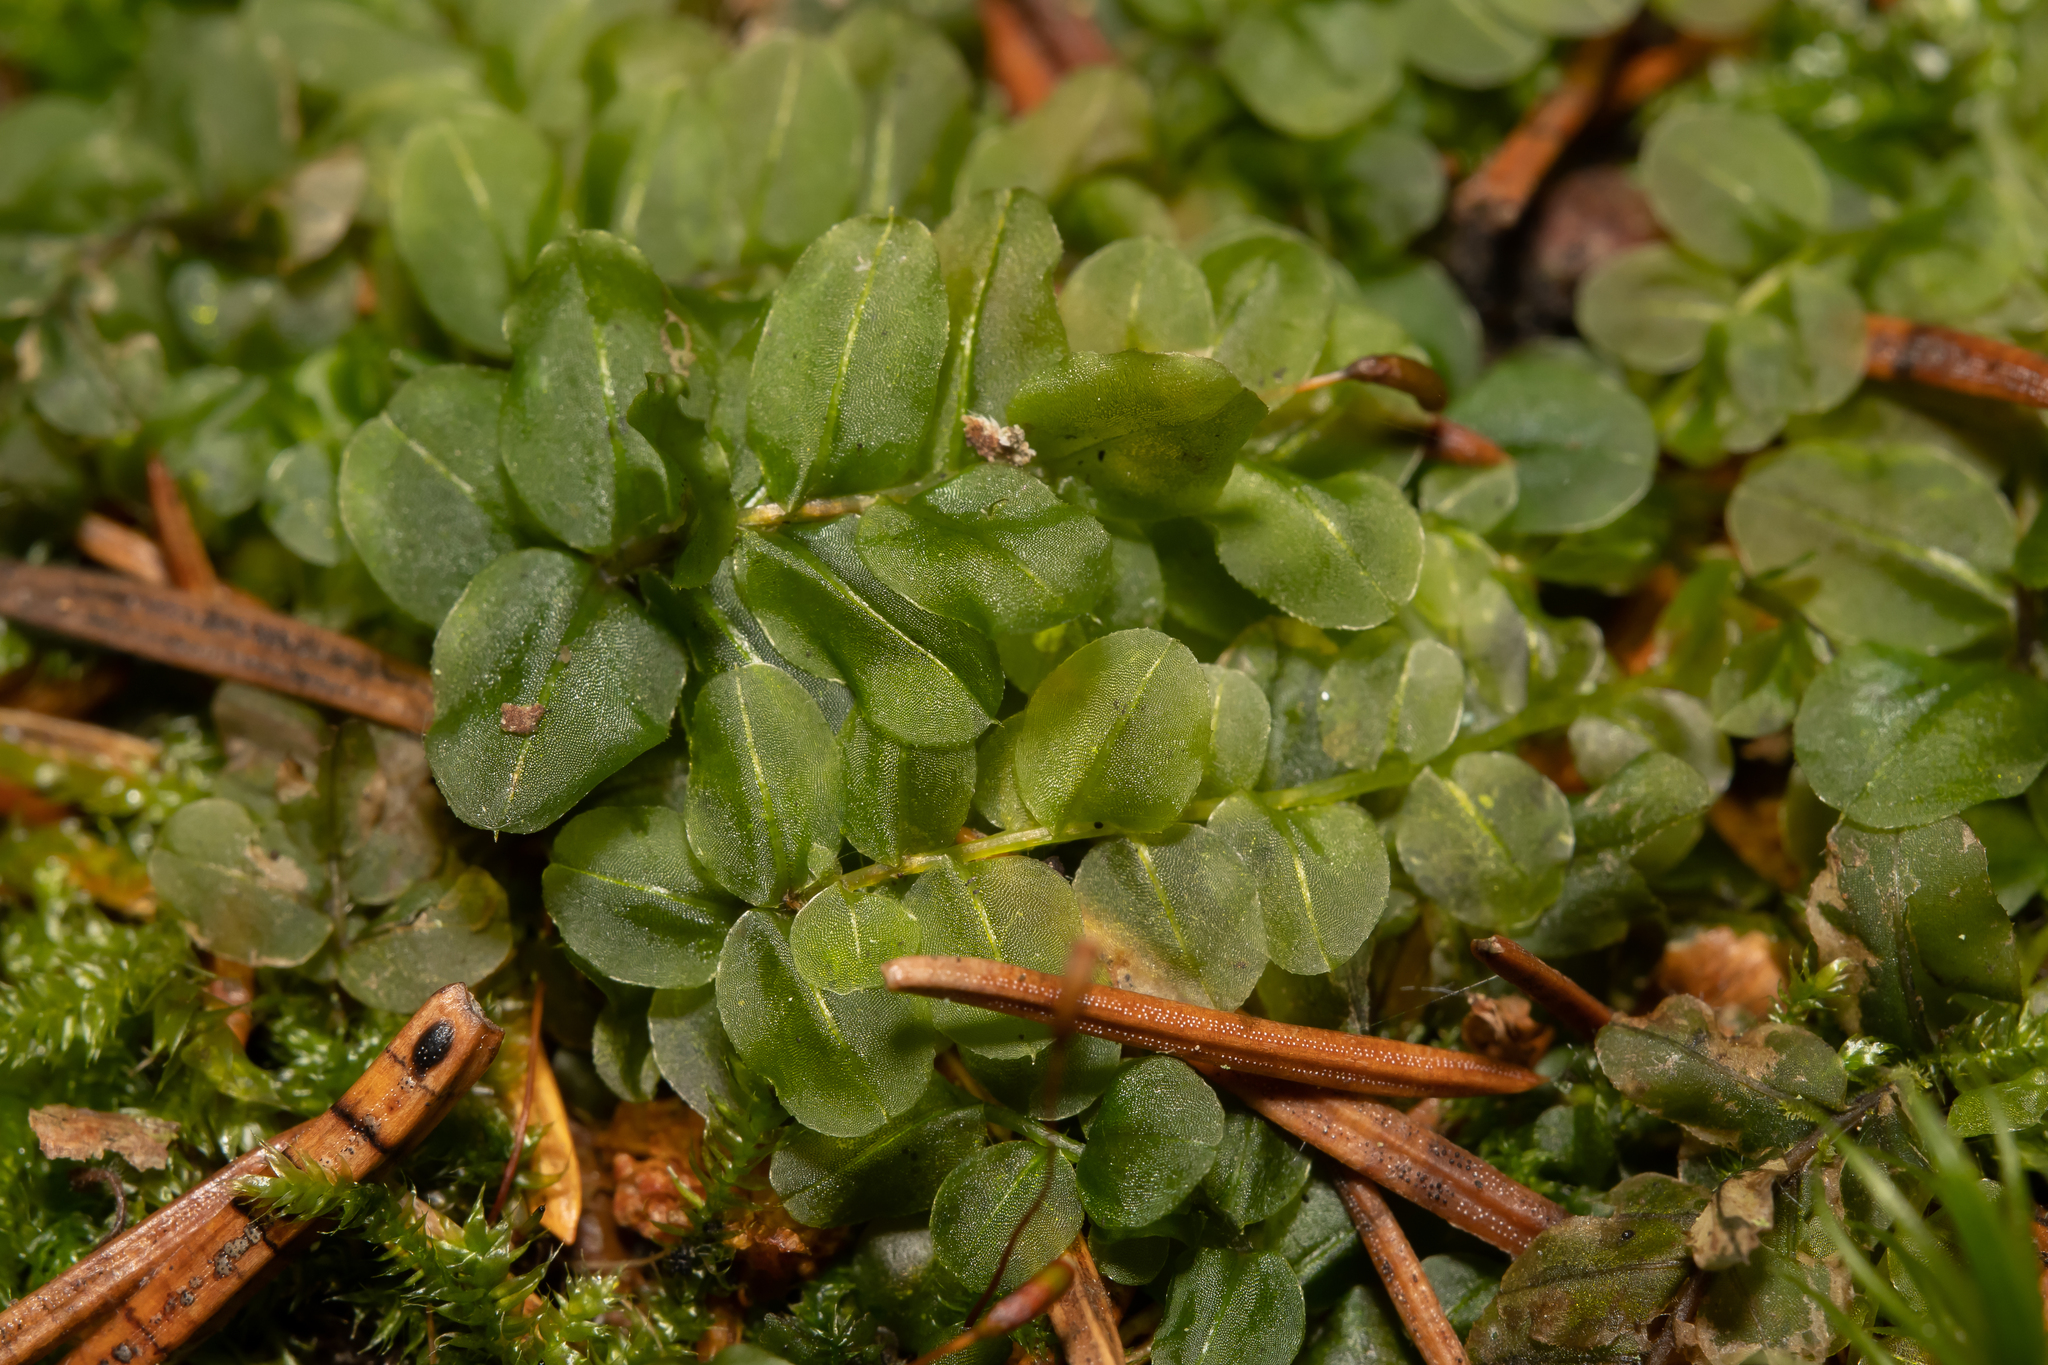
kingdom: Plantae
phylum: Bryophyta
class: Bryopsida
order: Bryales
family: Mniaceae
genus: Plagiomnium
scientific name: Plagiomnium affine
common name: Many-fruited thyme-moss
